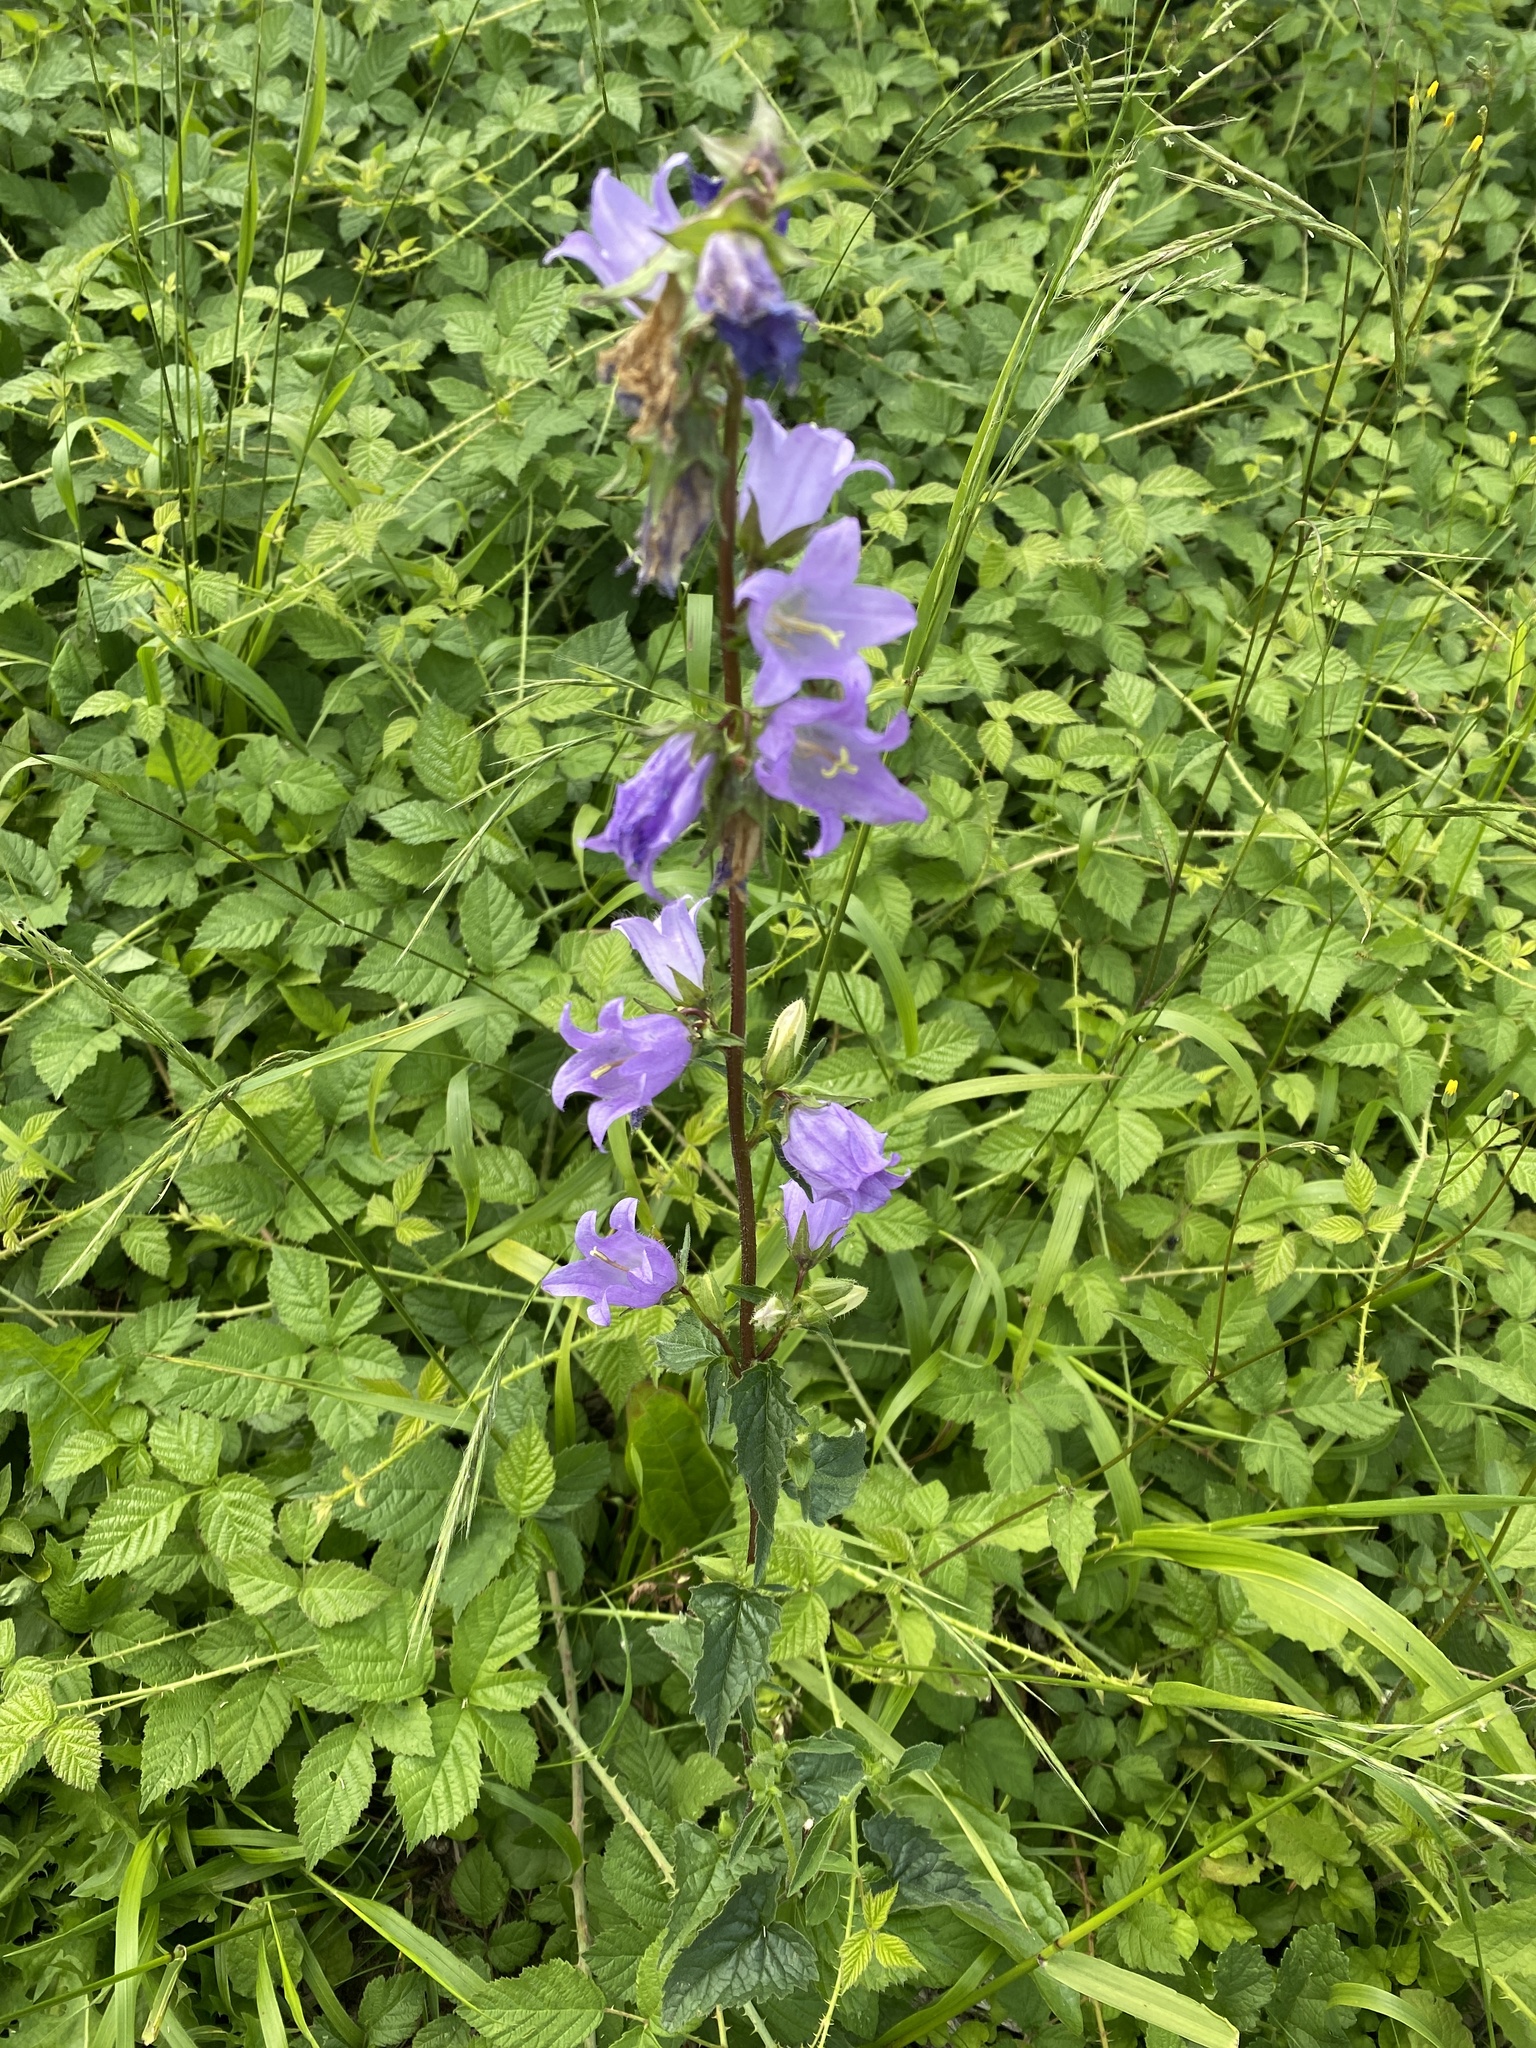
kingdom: Plantae
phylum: Tracheophyta
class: Magnoliopsida
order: Asterales
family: Campanulaceae
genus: Campanula
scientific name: Campanula trachelium
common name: Nettle-leaved bellflower
